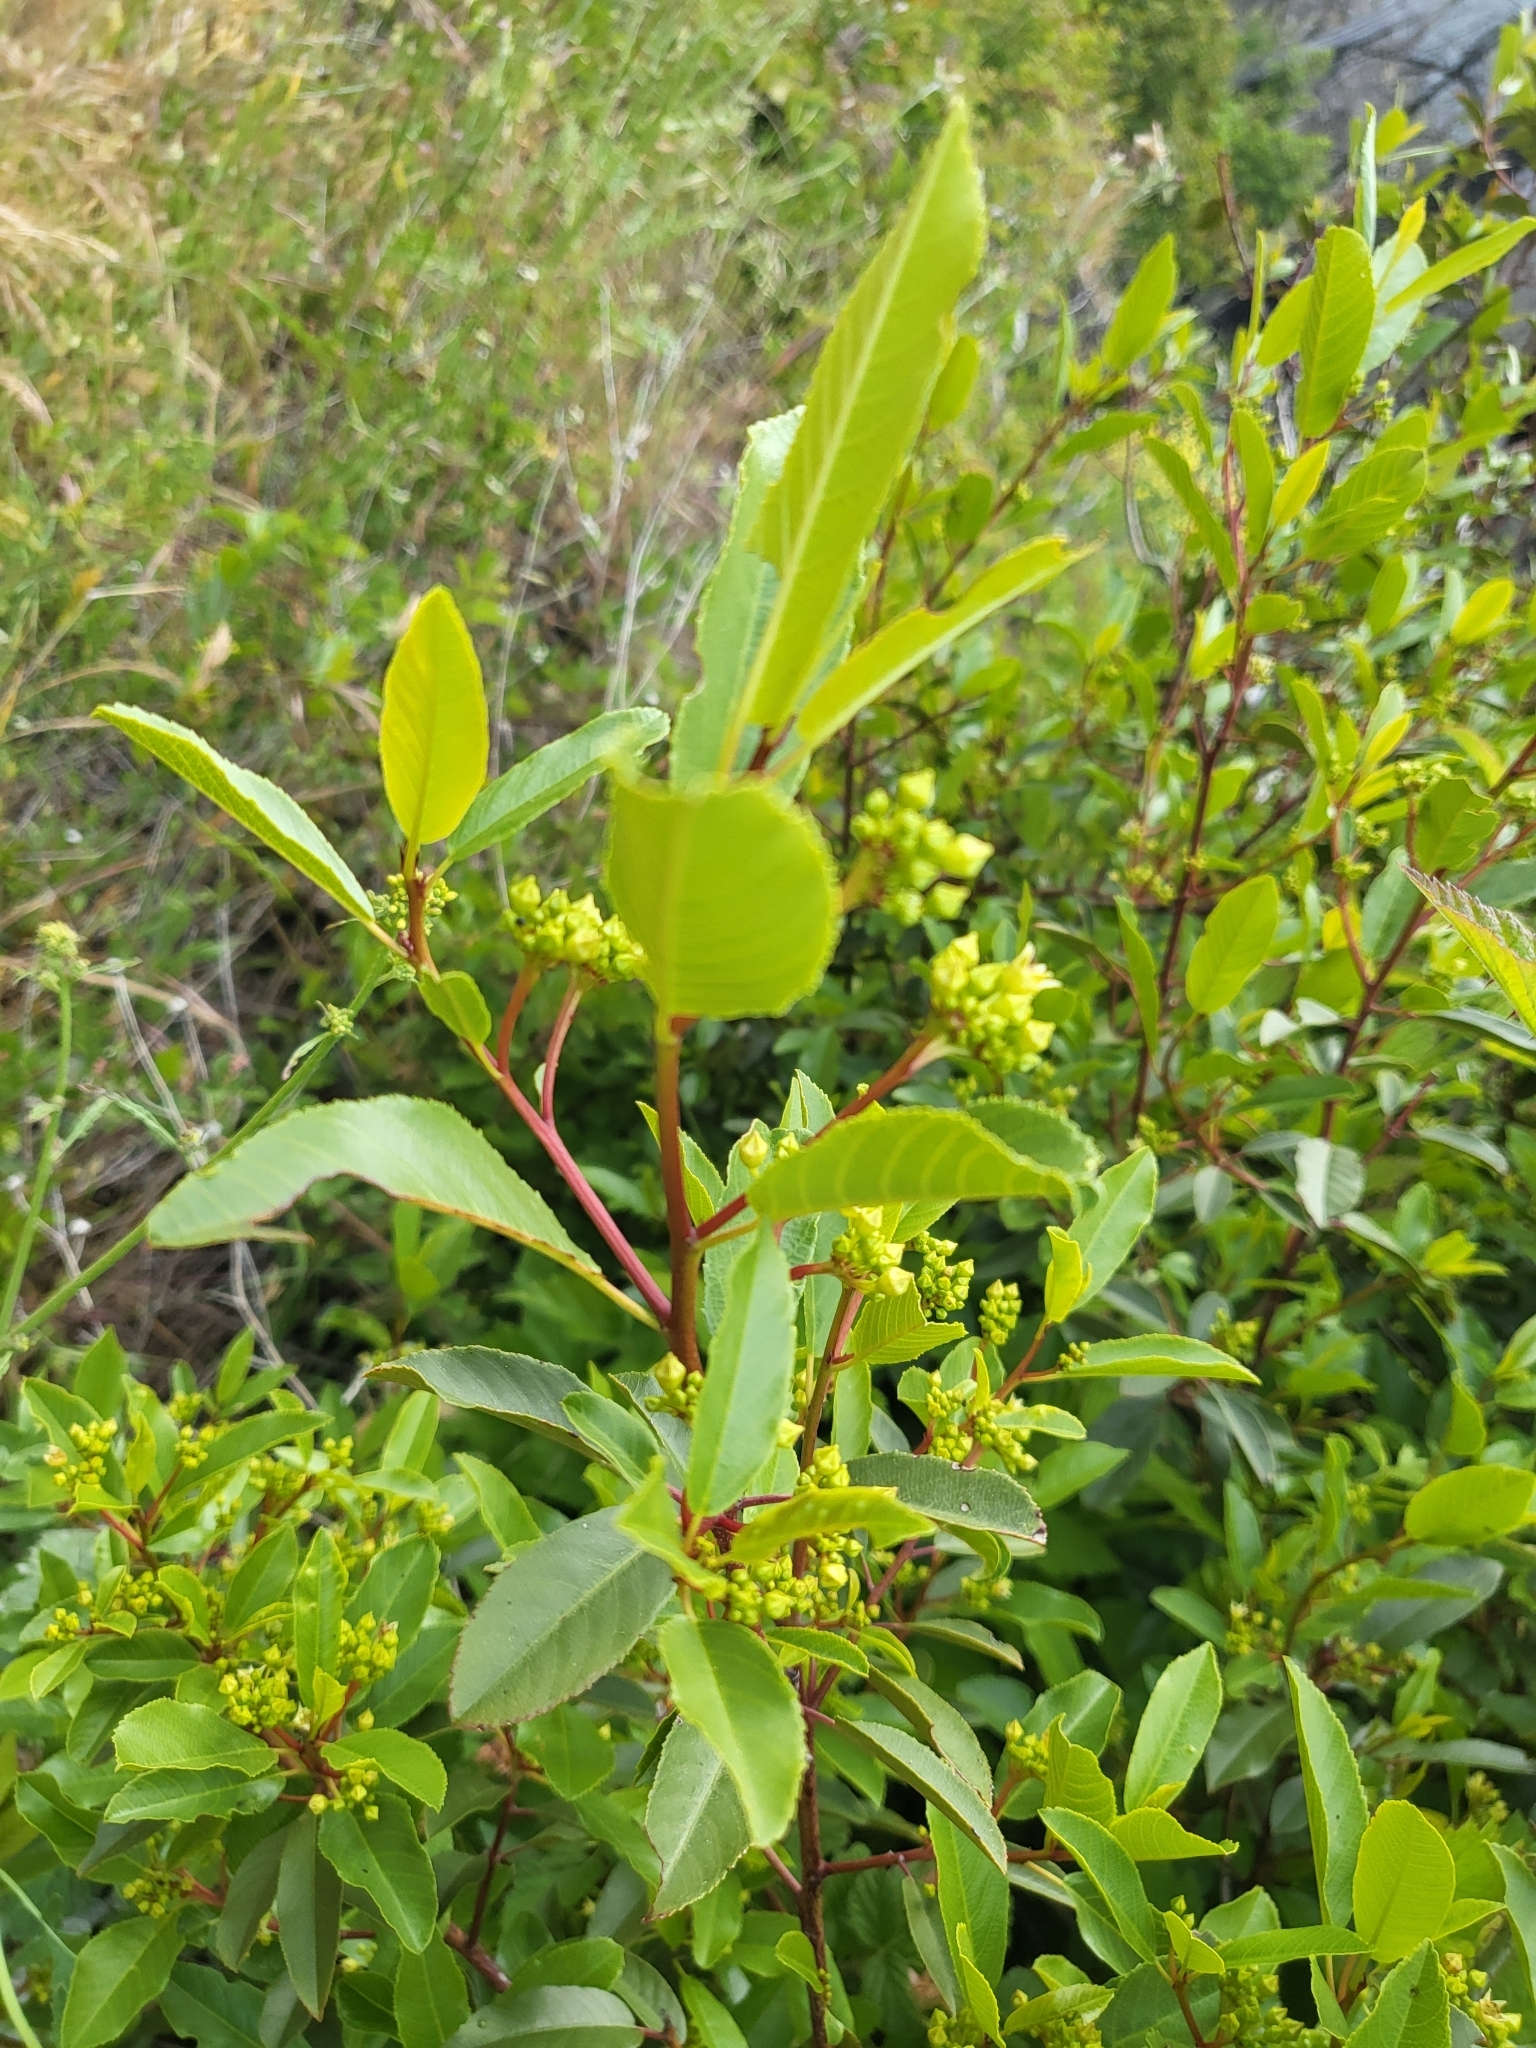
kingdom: Plantae
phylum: Tracheophyta
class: Magnoliopsida
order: Rosales
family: Rhamnaceae
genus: Frangula
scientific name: Frangula californica
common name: California buckthorn
